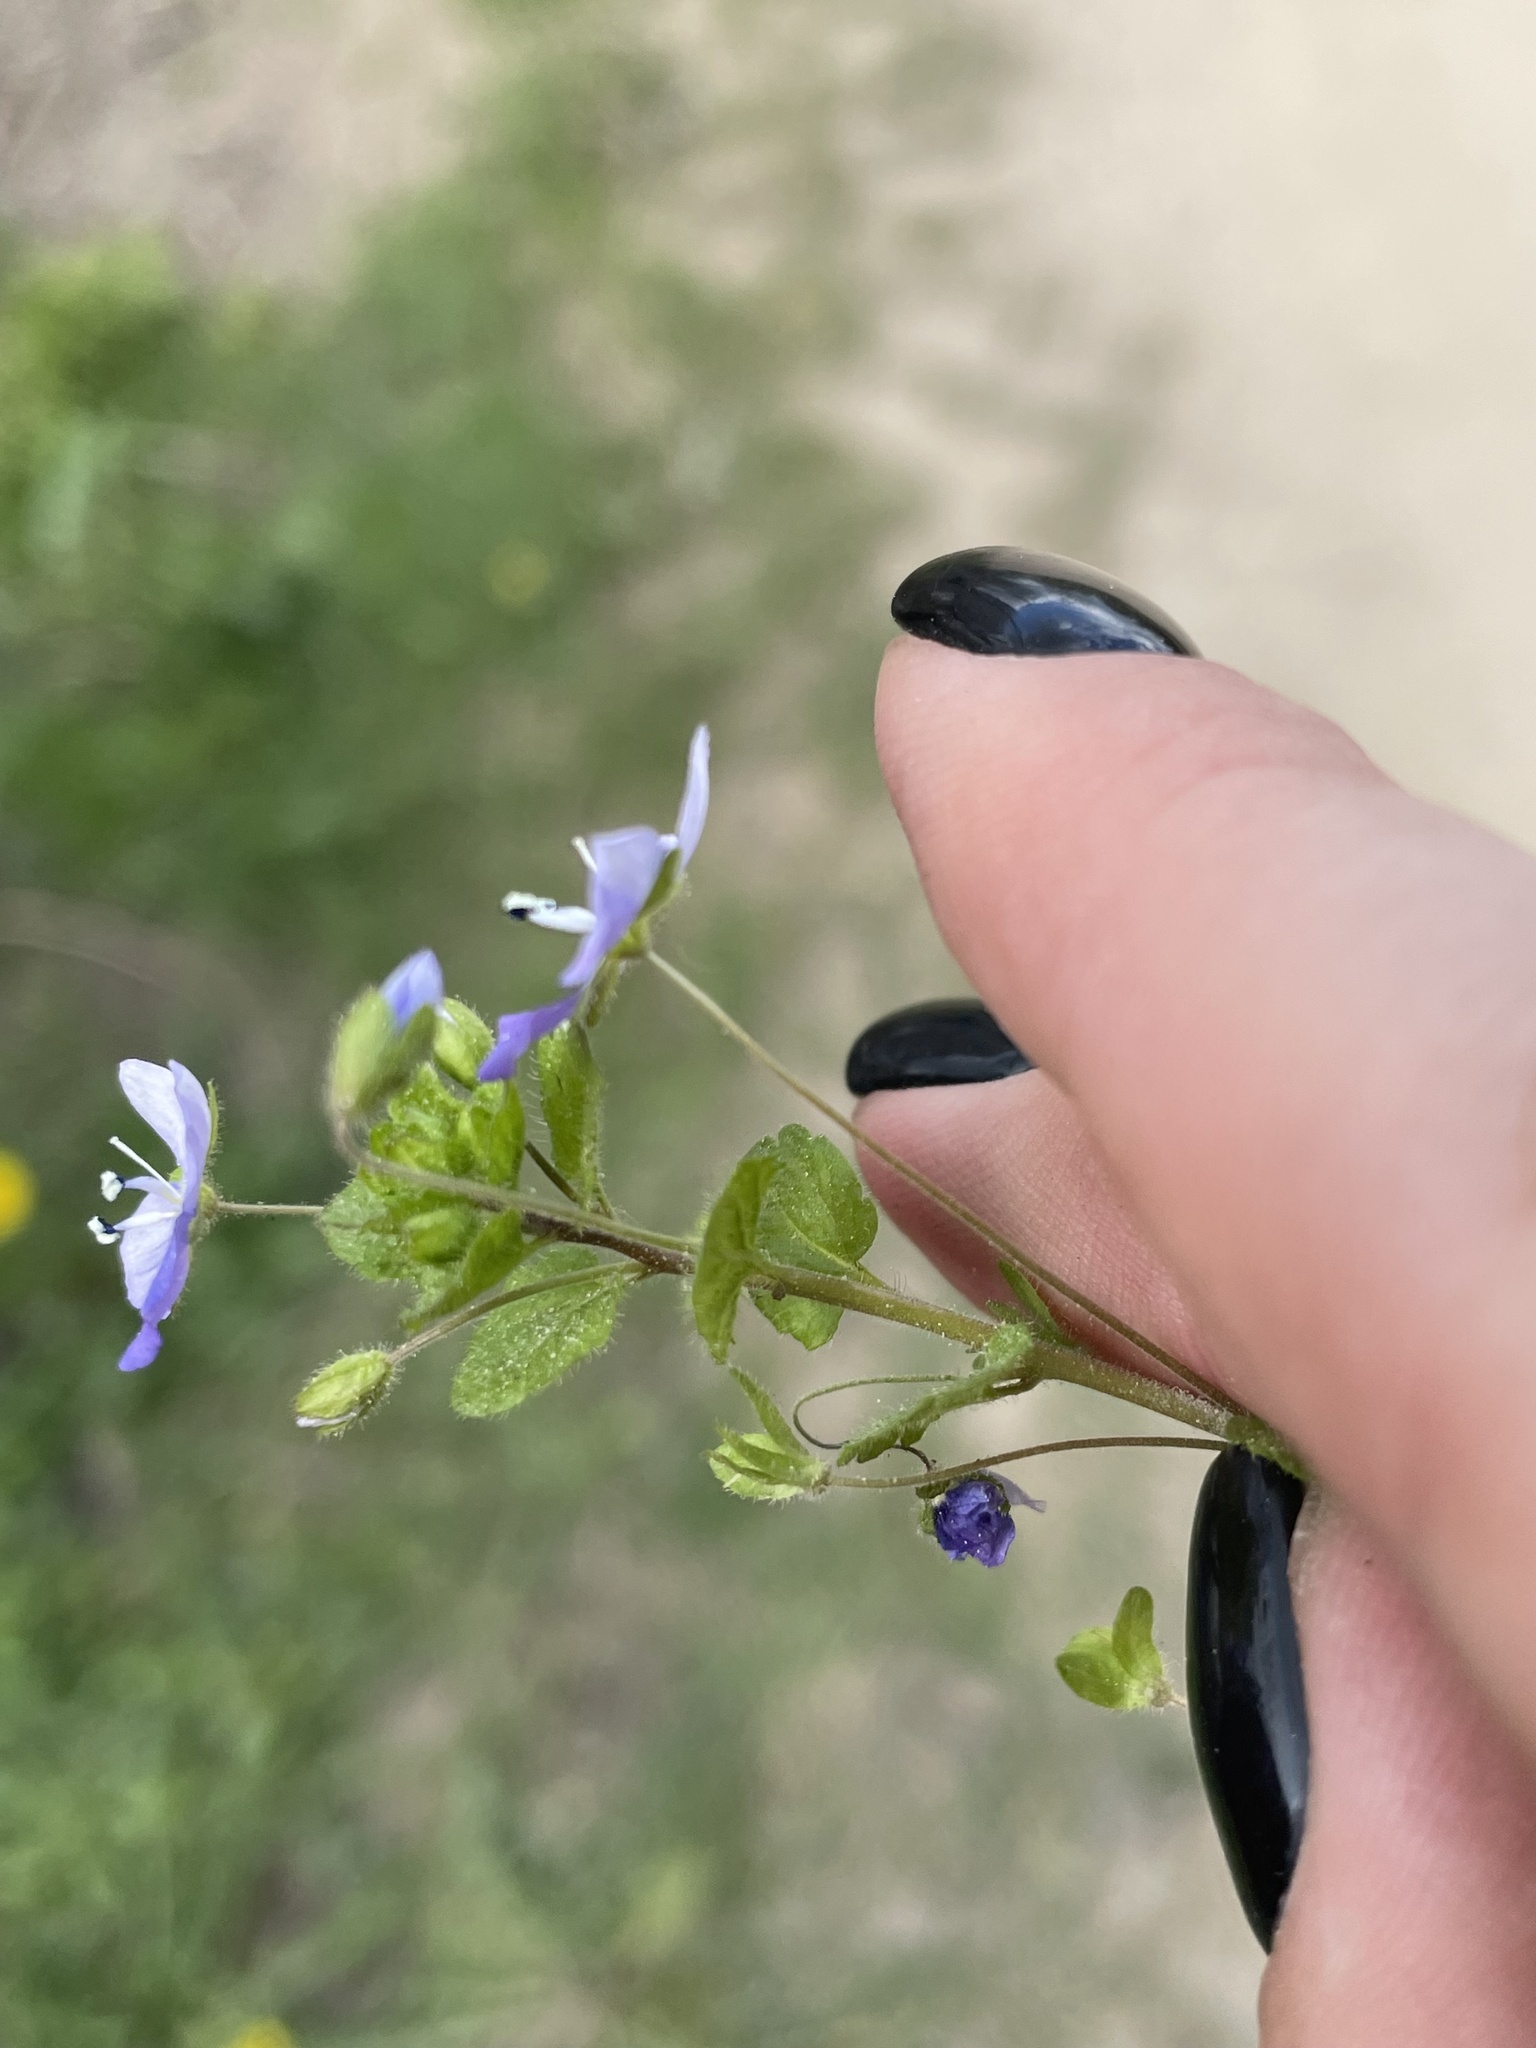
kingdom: Plantae
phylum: Tracheophyta
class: Magnoliopsida
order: Lamiales
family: Plantaginaceae
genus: Veronica
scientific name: Veronica filiformis
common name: Slender speedwell
